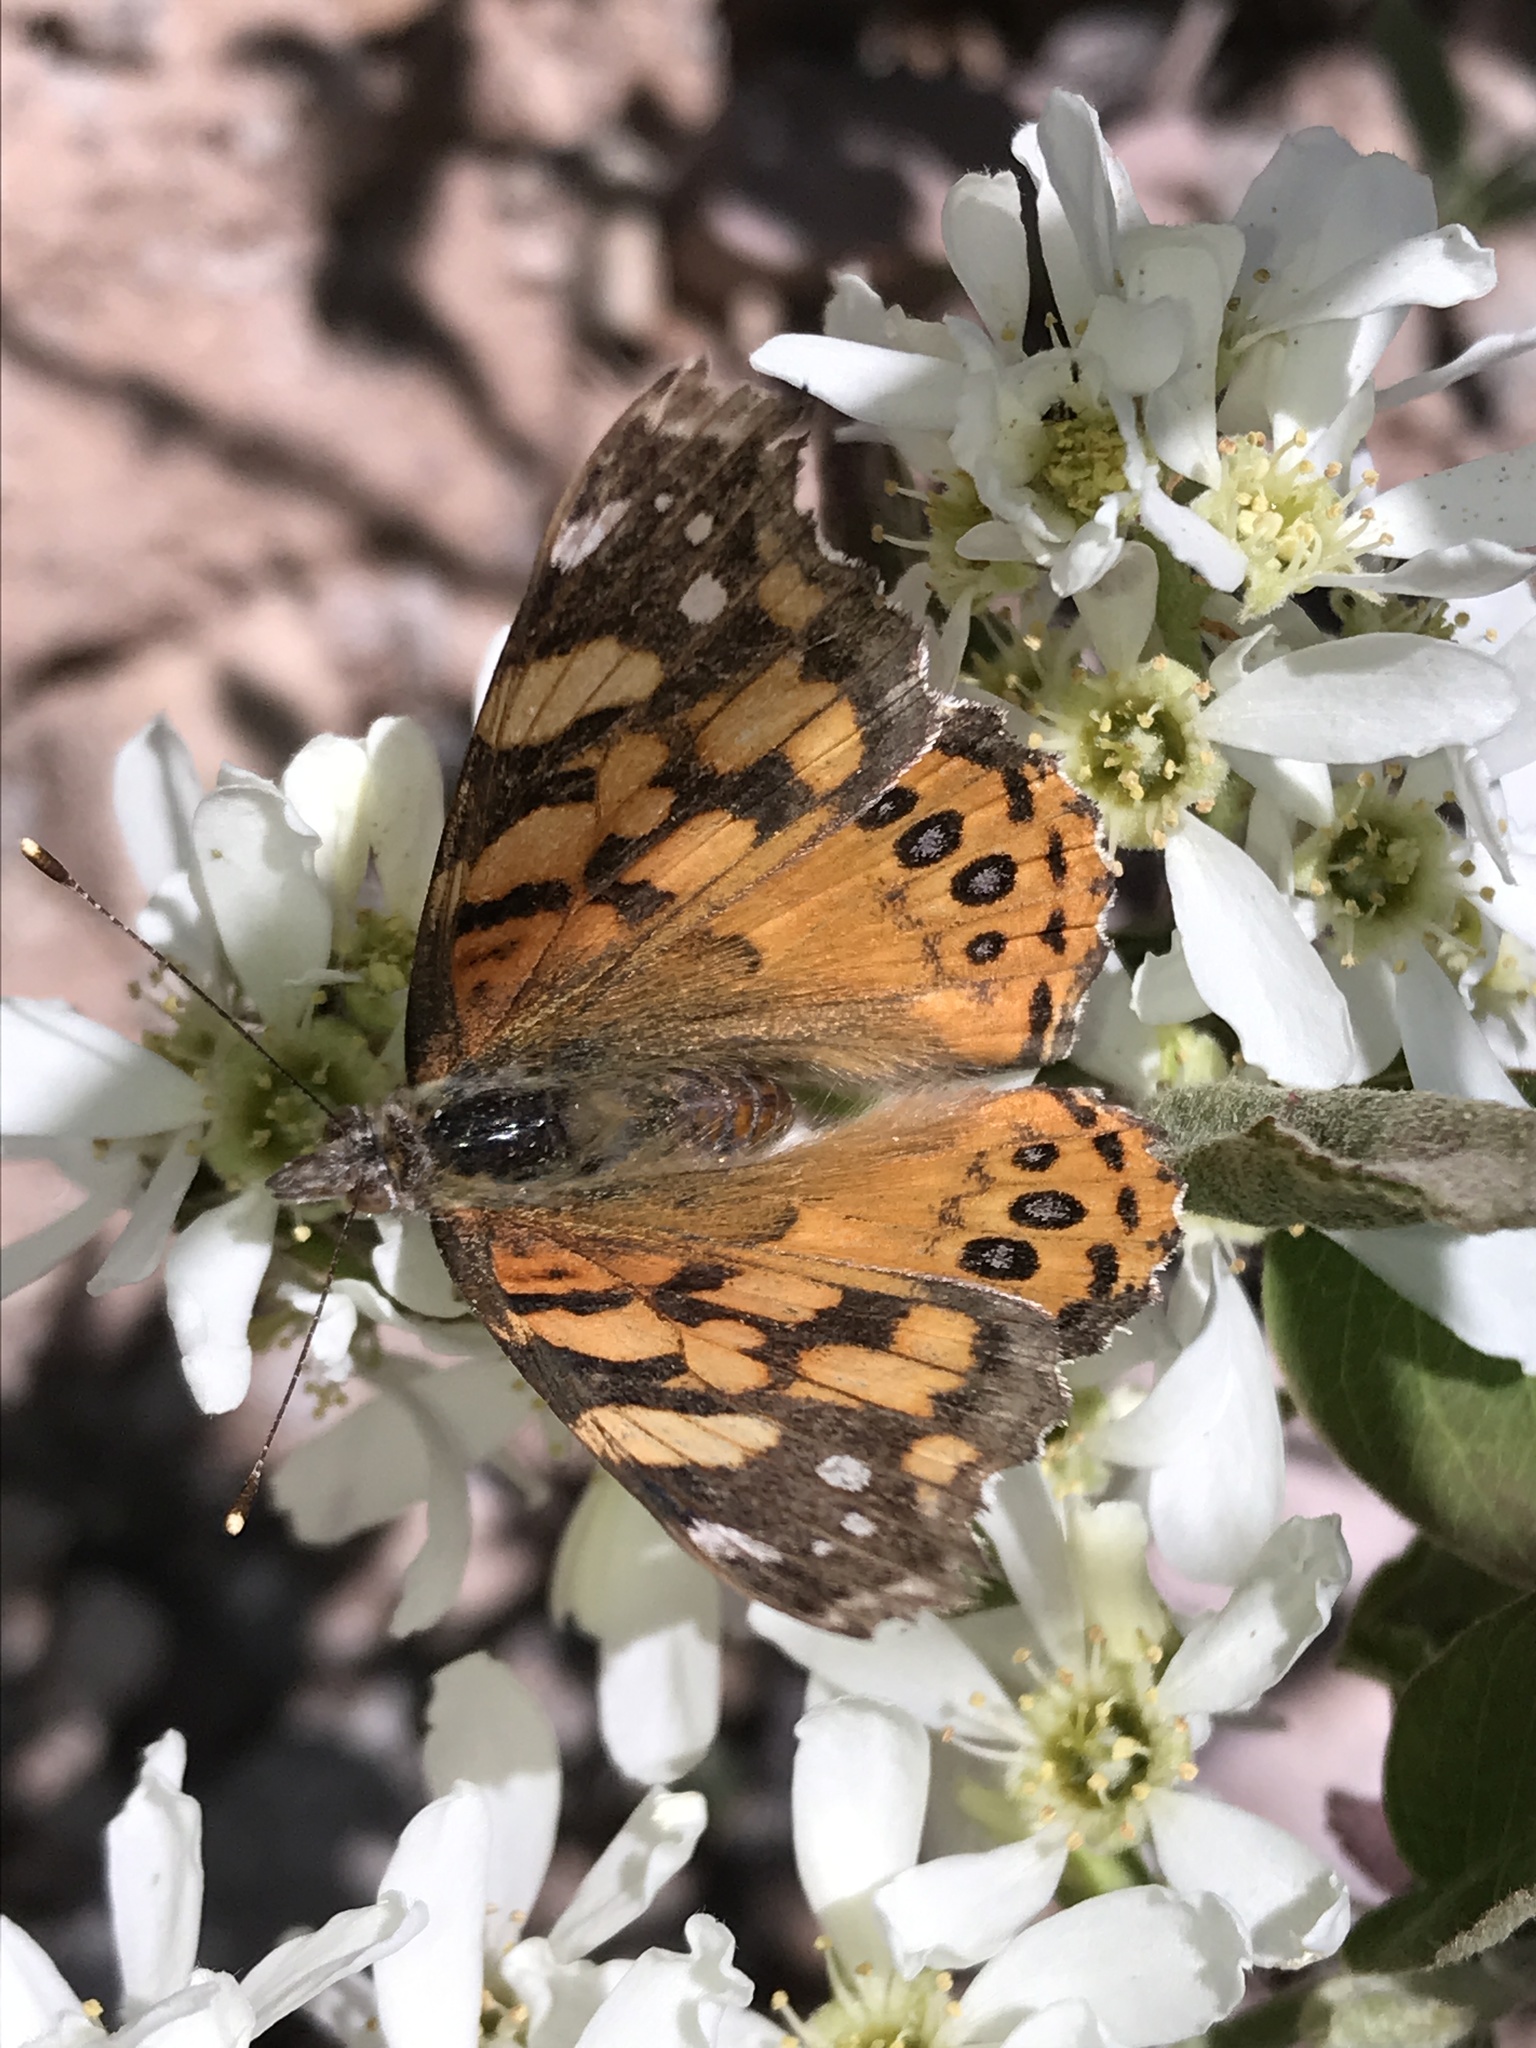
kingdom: Animalia
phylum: Arthropoda
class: Insecta
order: Lepidoptera
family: Nymphalidae
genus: Vanessa
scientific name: Vanessa annabella
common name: West coast lady
